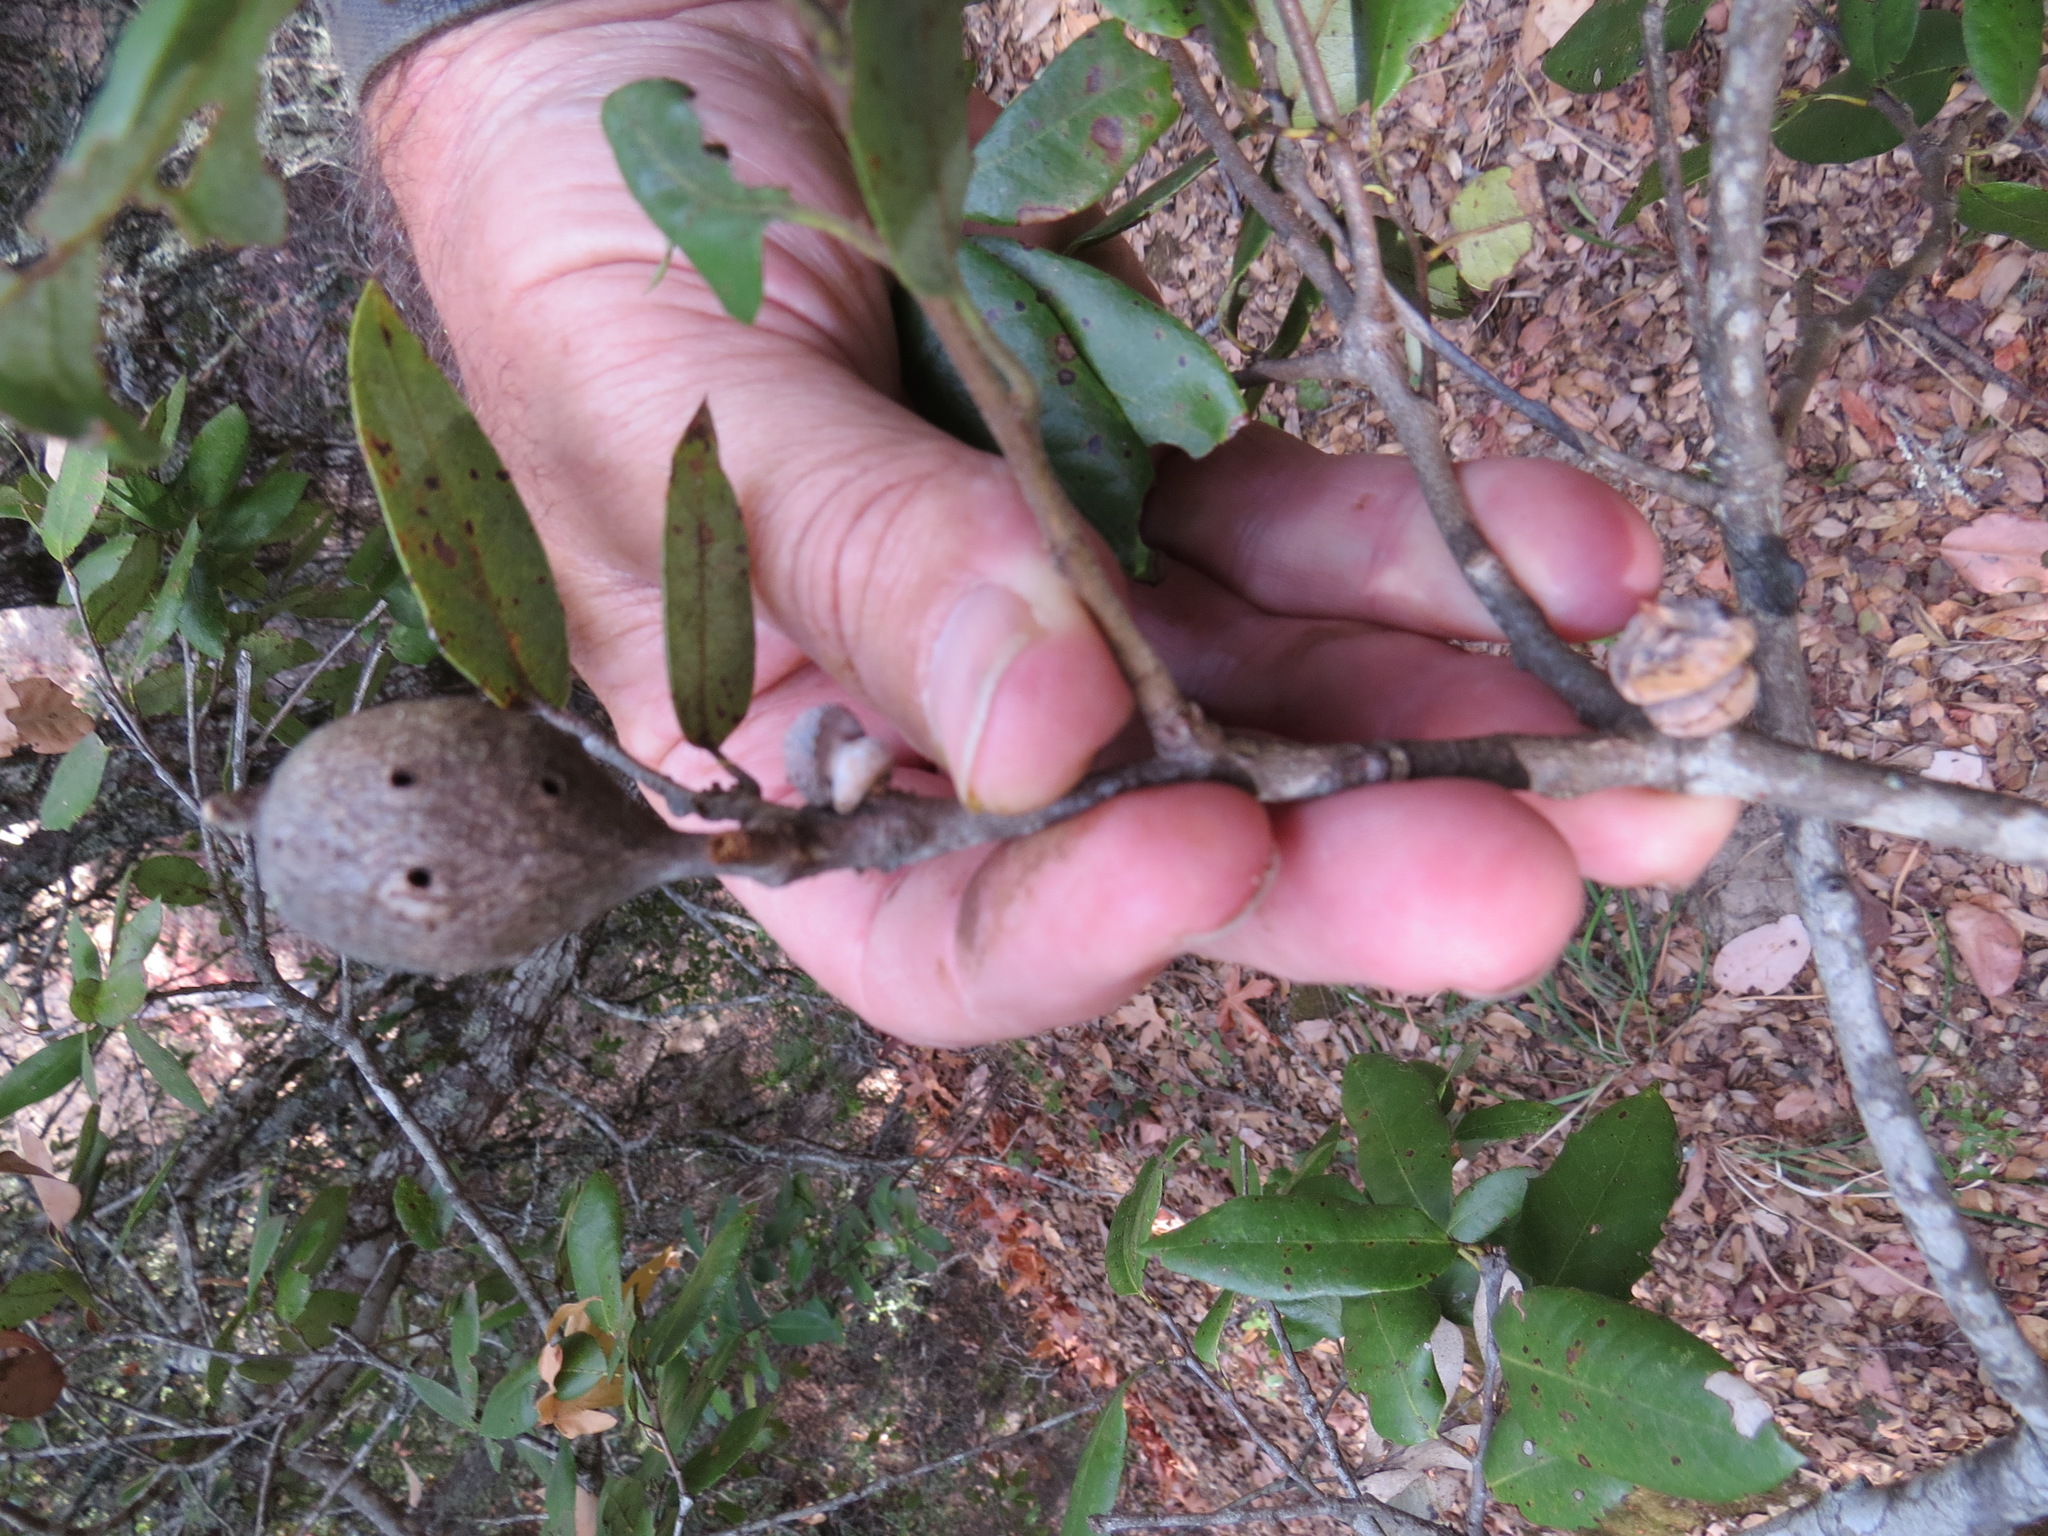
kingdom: Animalia
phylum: Arthropoda
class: Insecta
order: Hymenoptera
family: Cynipidae
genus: Disholcaspis
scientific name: Disholcaspis spectabilis
